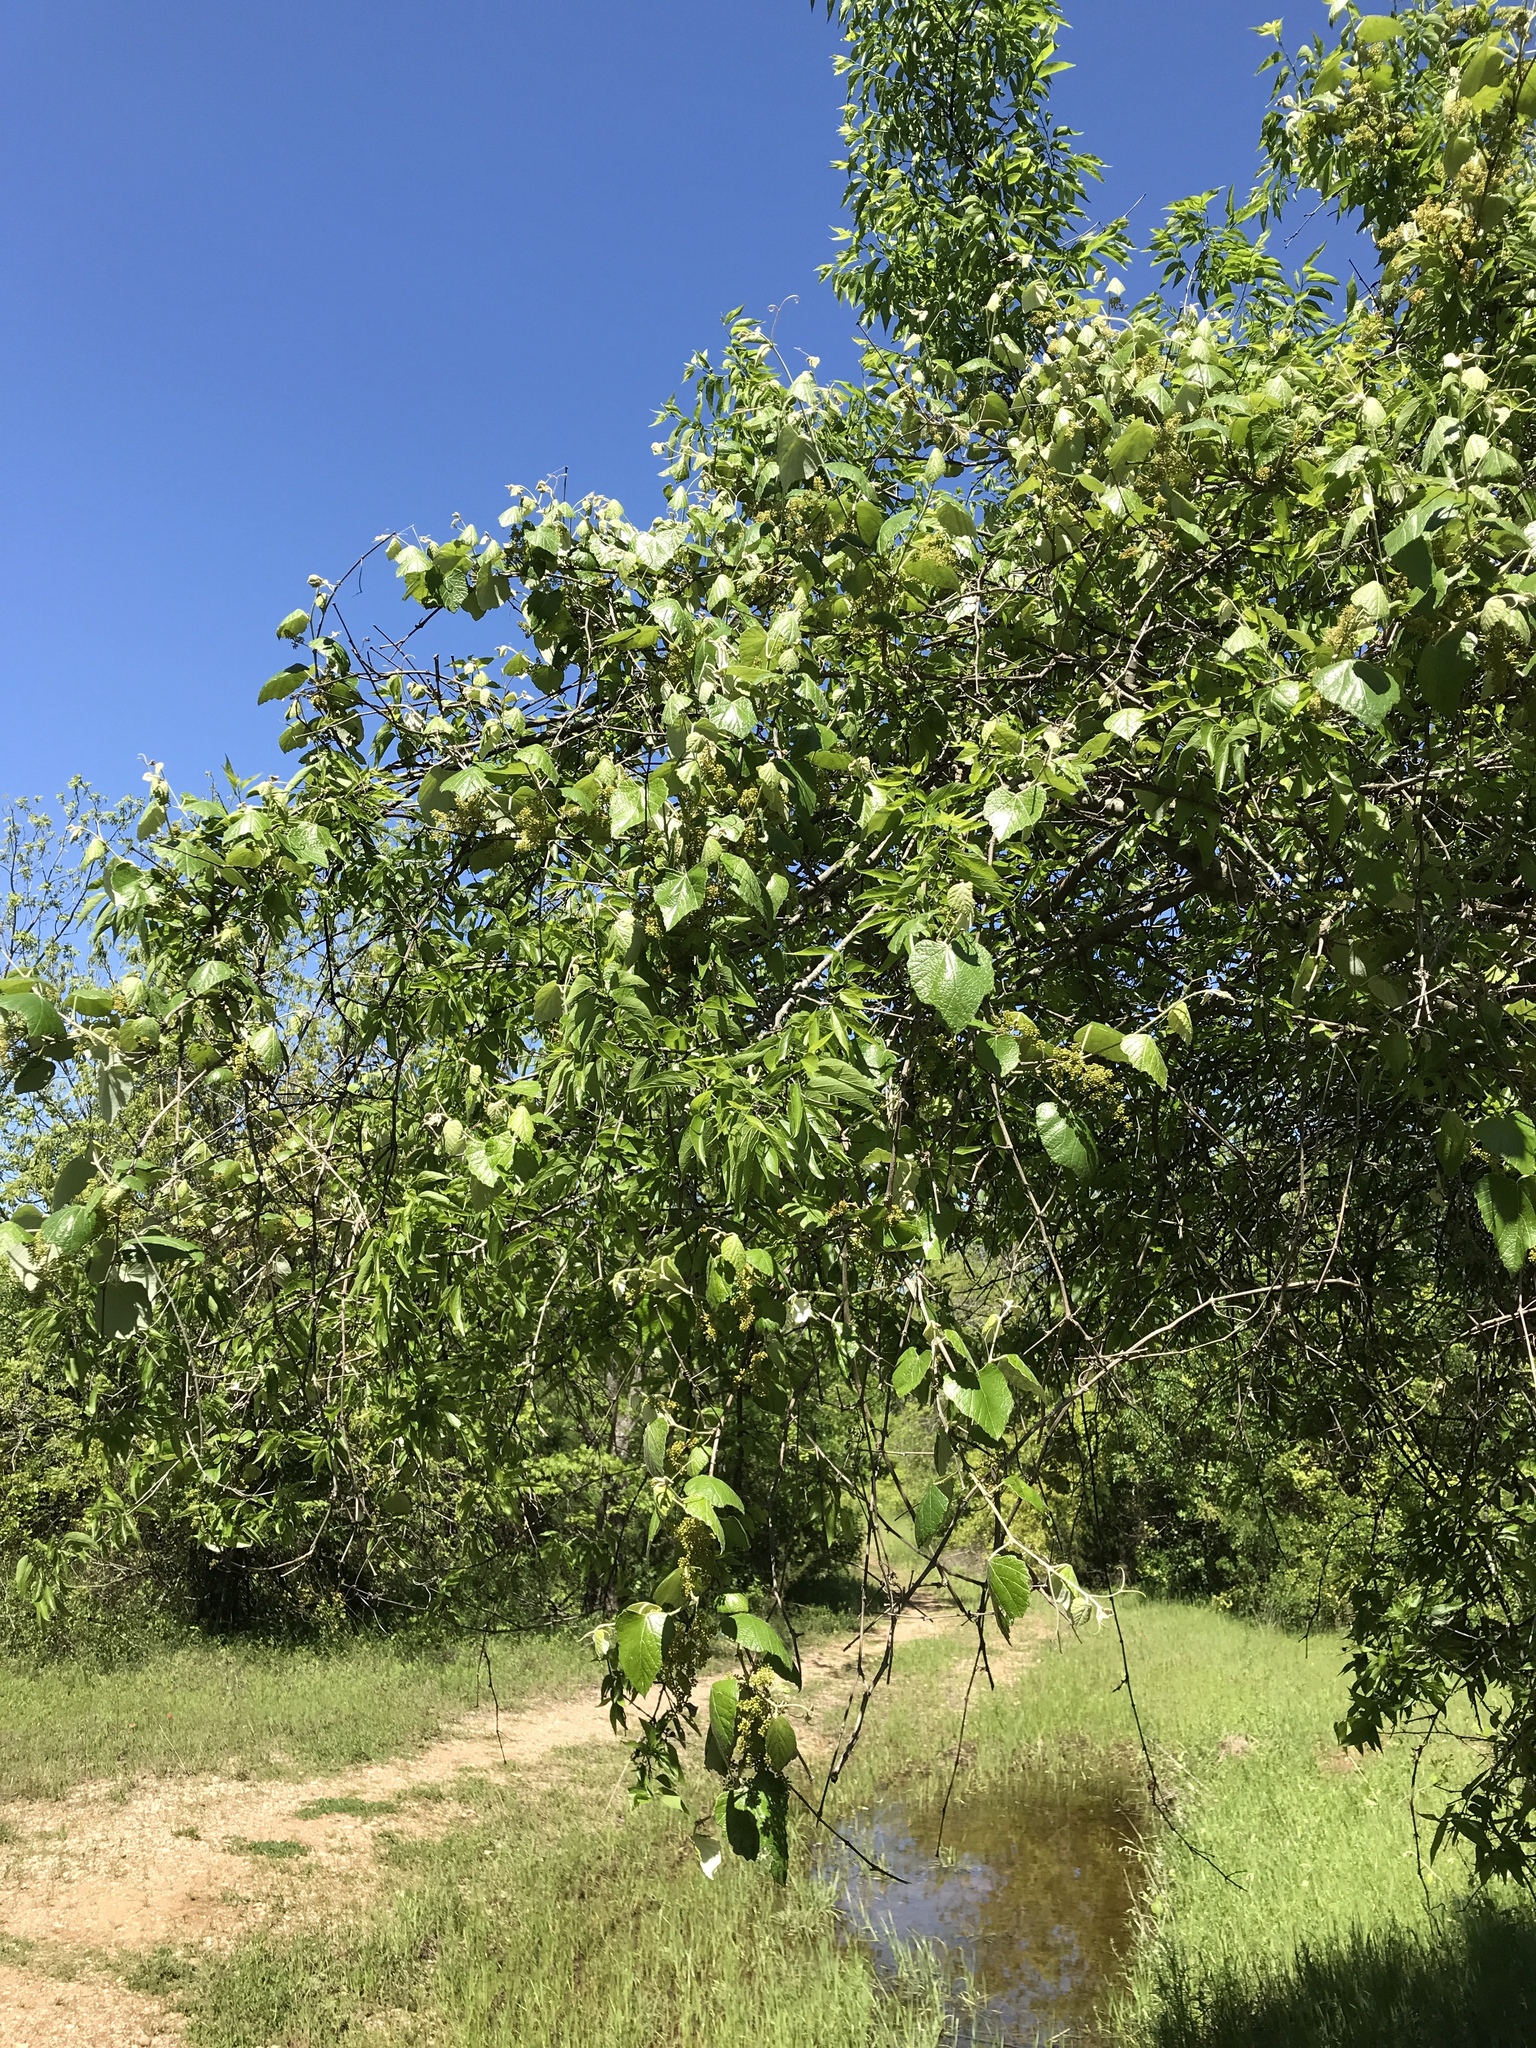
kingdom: Plantae
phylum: Tracheophyta
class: Magnoliopsida
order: Vitales
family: Vitaceae
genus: Vitis
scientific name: Vitis mustangensis
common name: Mustang grape
